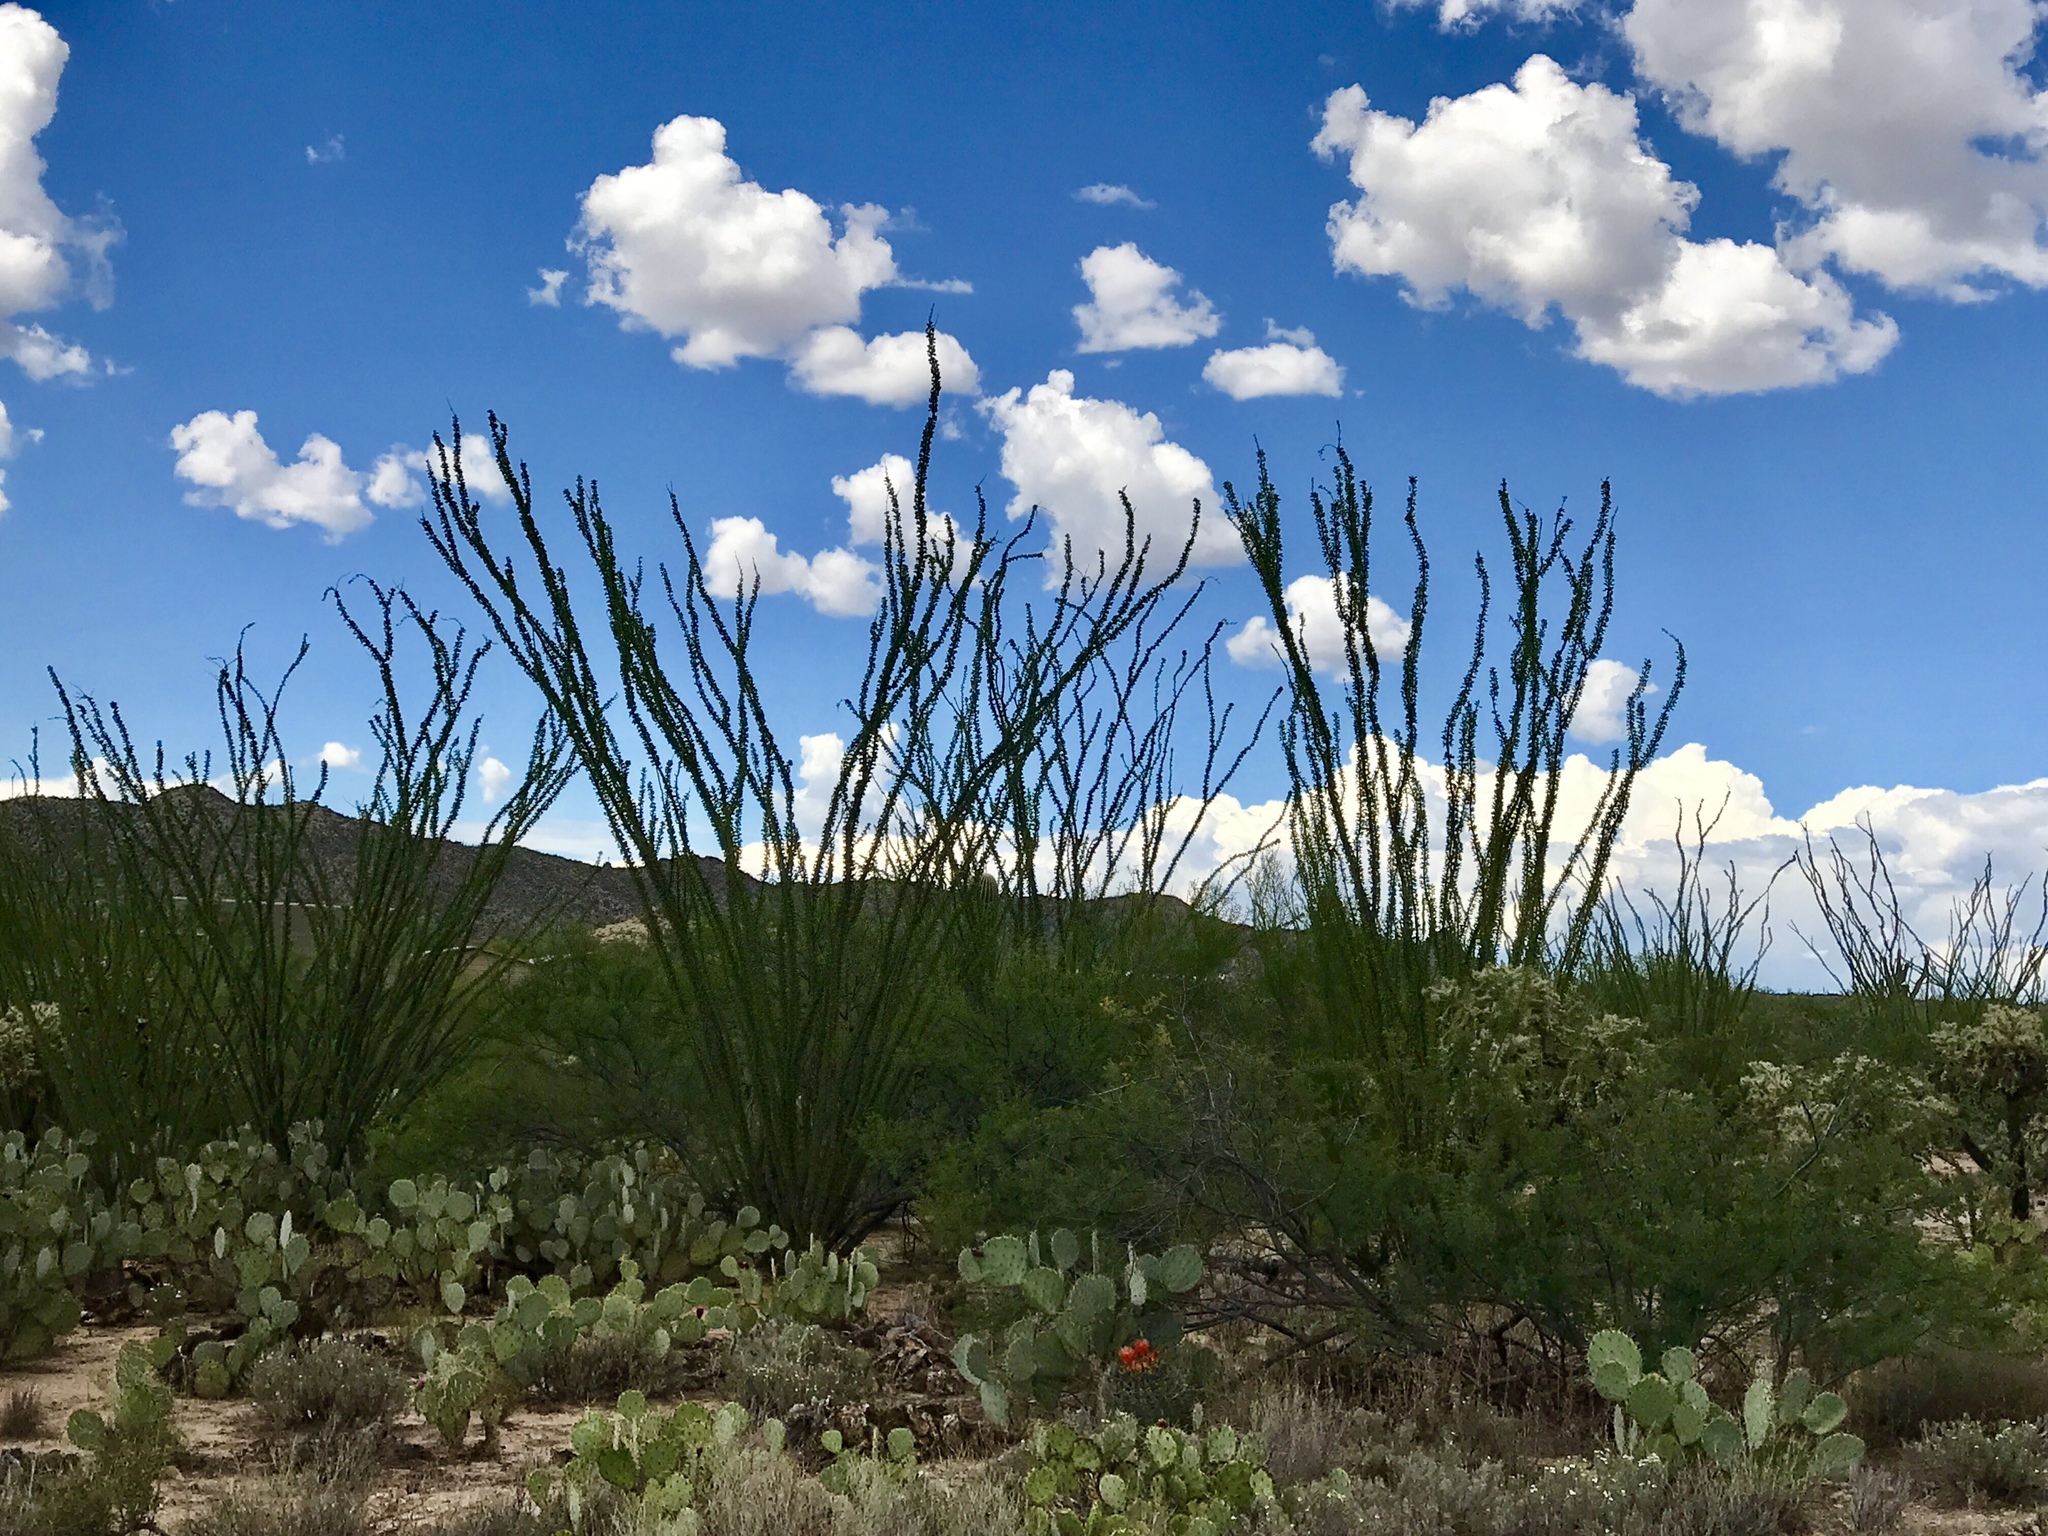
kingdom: Plantae
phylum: Tracheophyta
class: Magnoliopsida
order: Ericales
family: Fouquieriaceae
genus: Fouquieria
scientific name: Fouquieria splendens
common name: Vine-cactus
